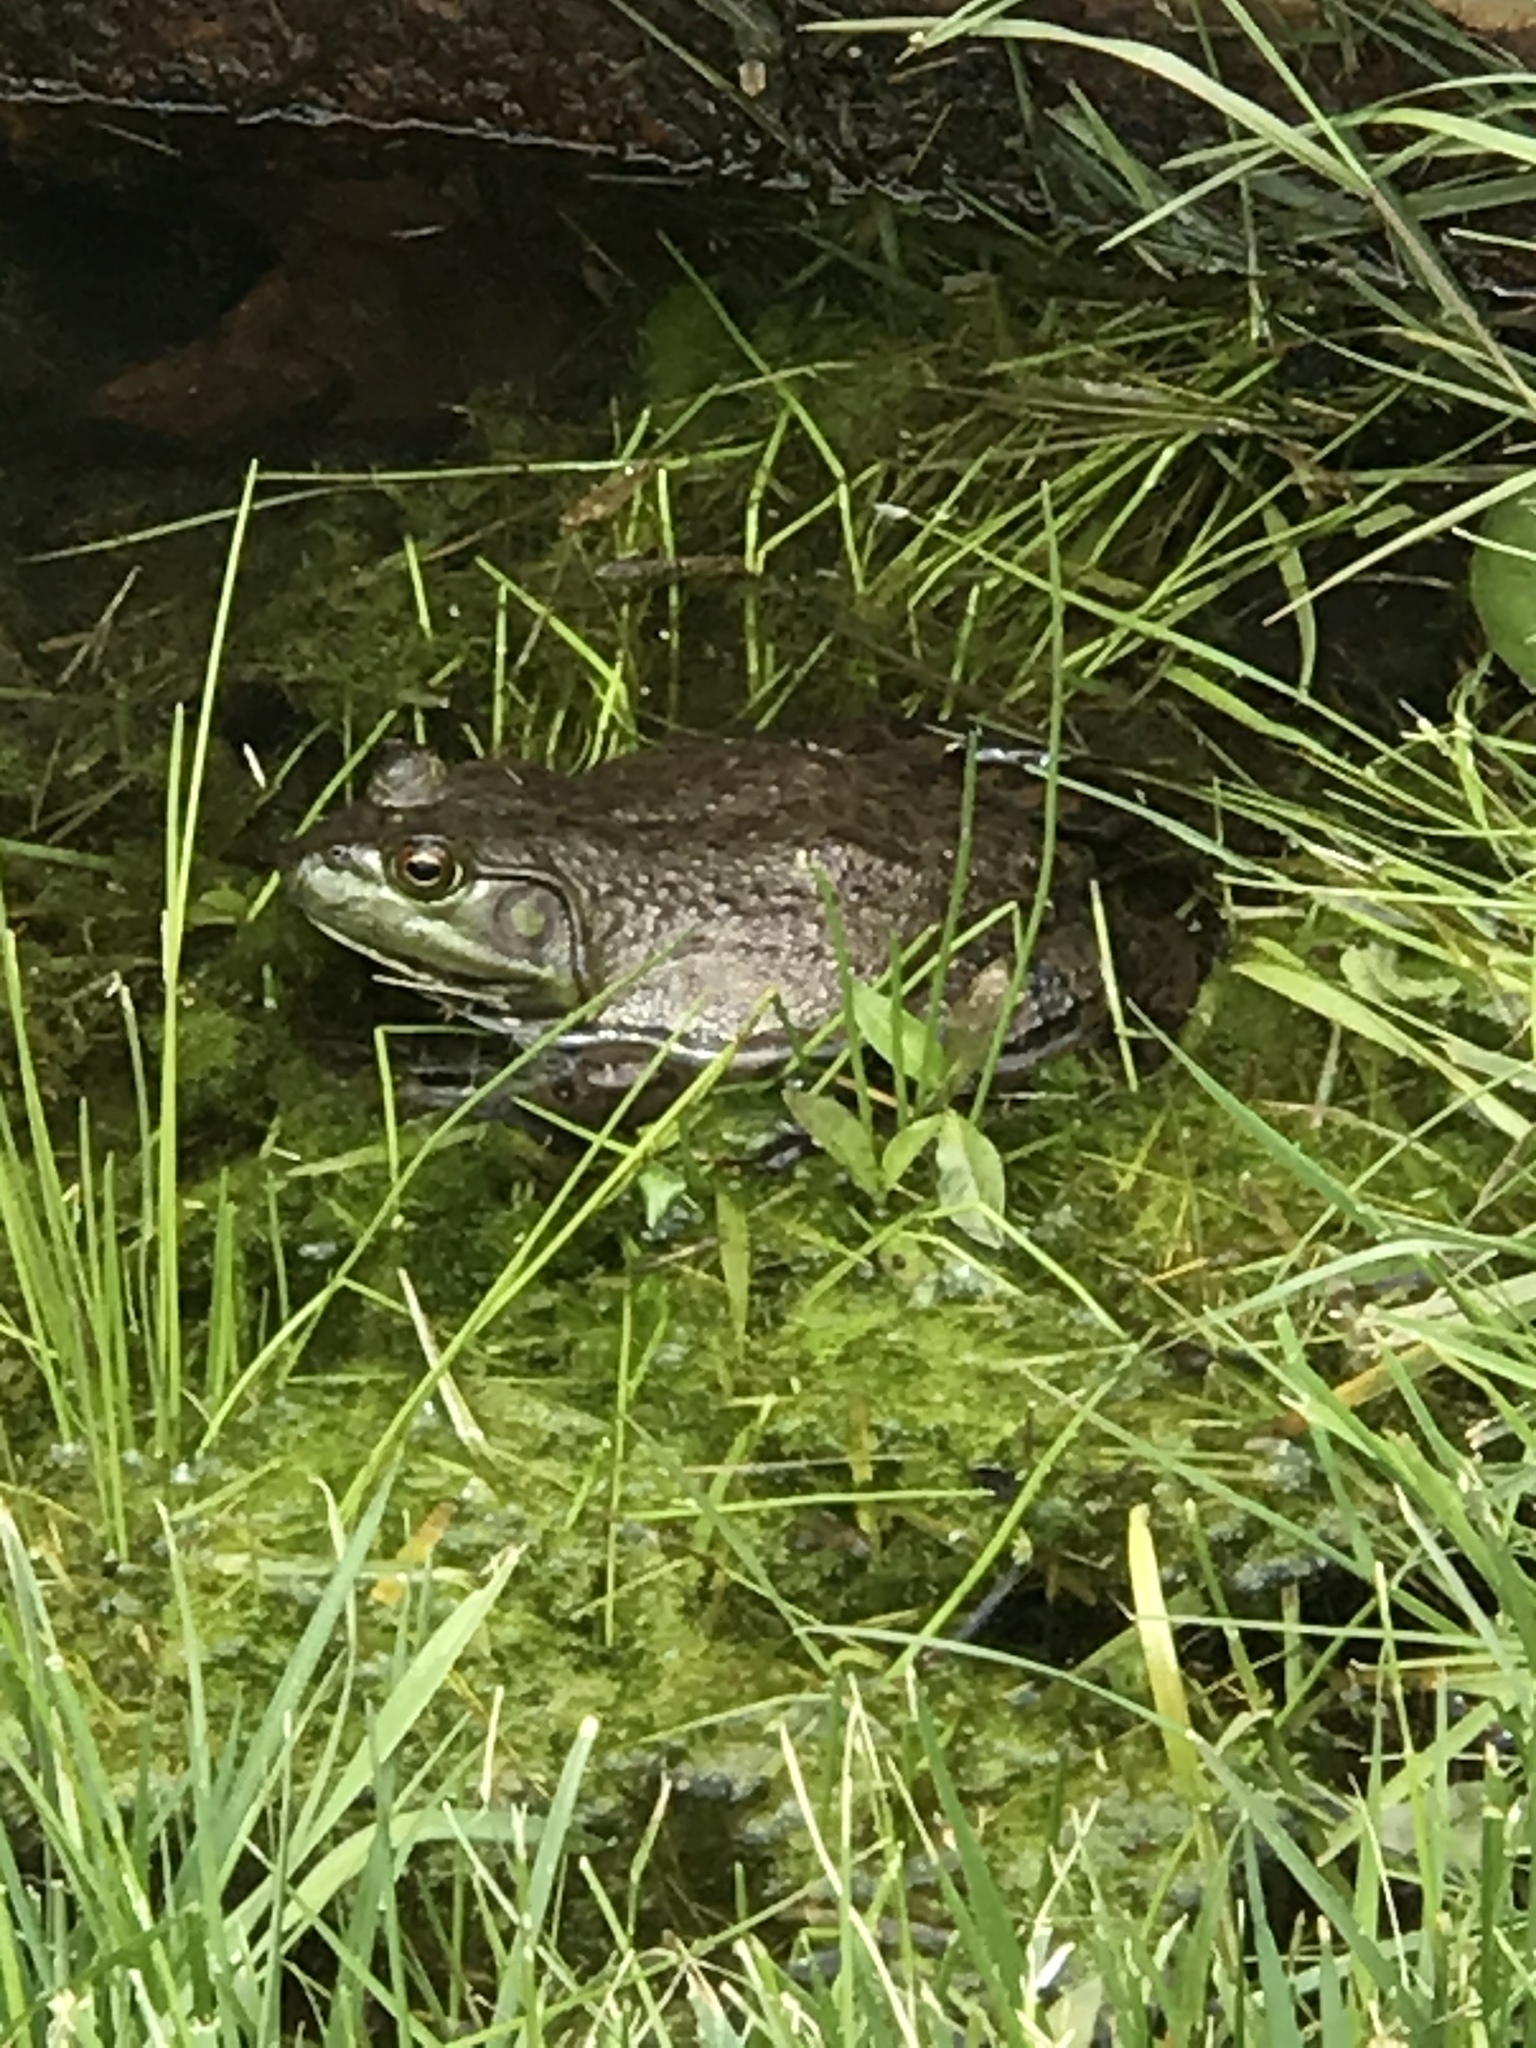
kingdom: Animalia
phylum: Chordata
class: Amphibia
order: Anura
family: Ranidae
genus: Lithobates
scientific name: Lithobates catesbeianus
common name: American bullfrog
